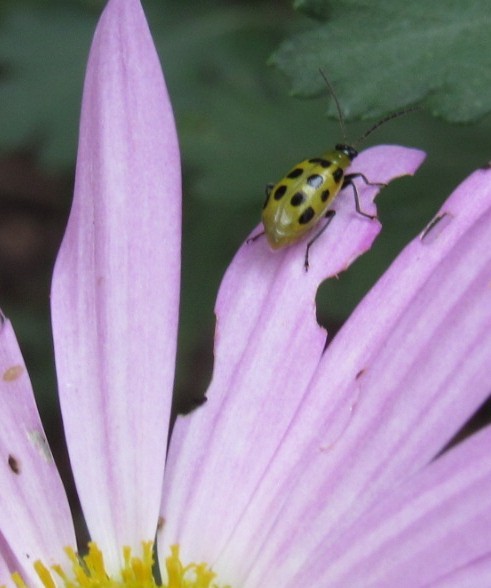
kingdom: Animalia
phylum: Arthropoda
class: Insecta
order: Coleoptera
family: Chrysomelidae
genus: Diabrotica
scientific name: Diabrotica undecimpunctata
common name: Spotted cucumber beetle
